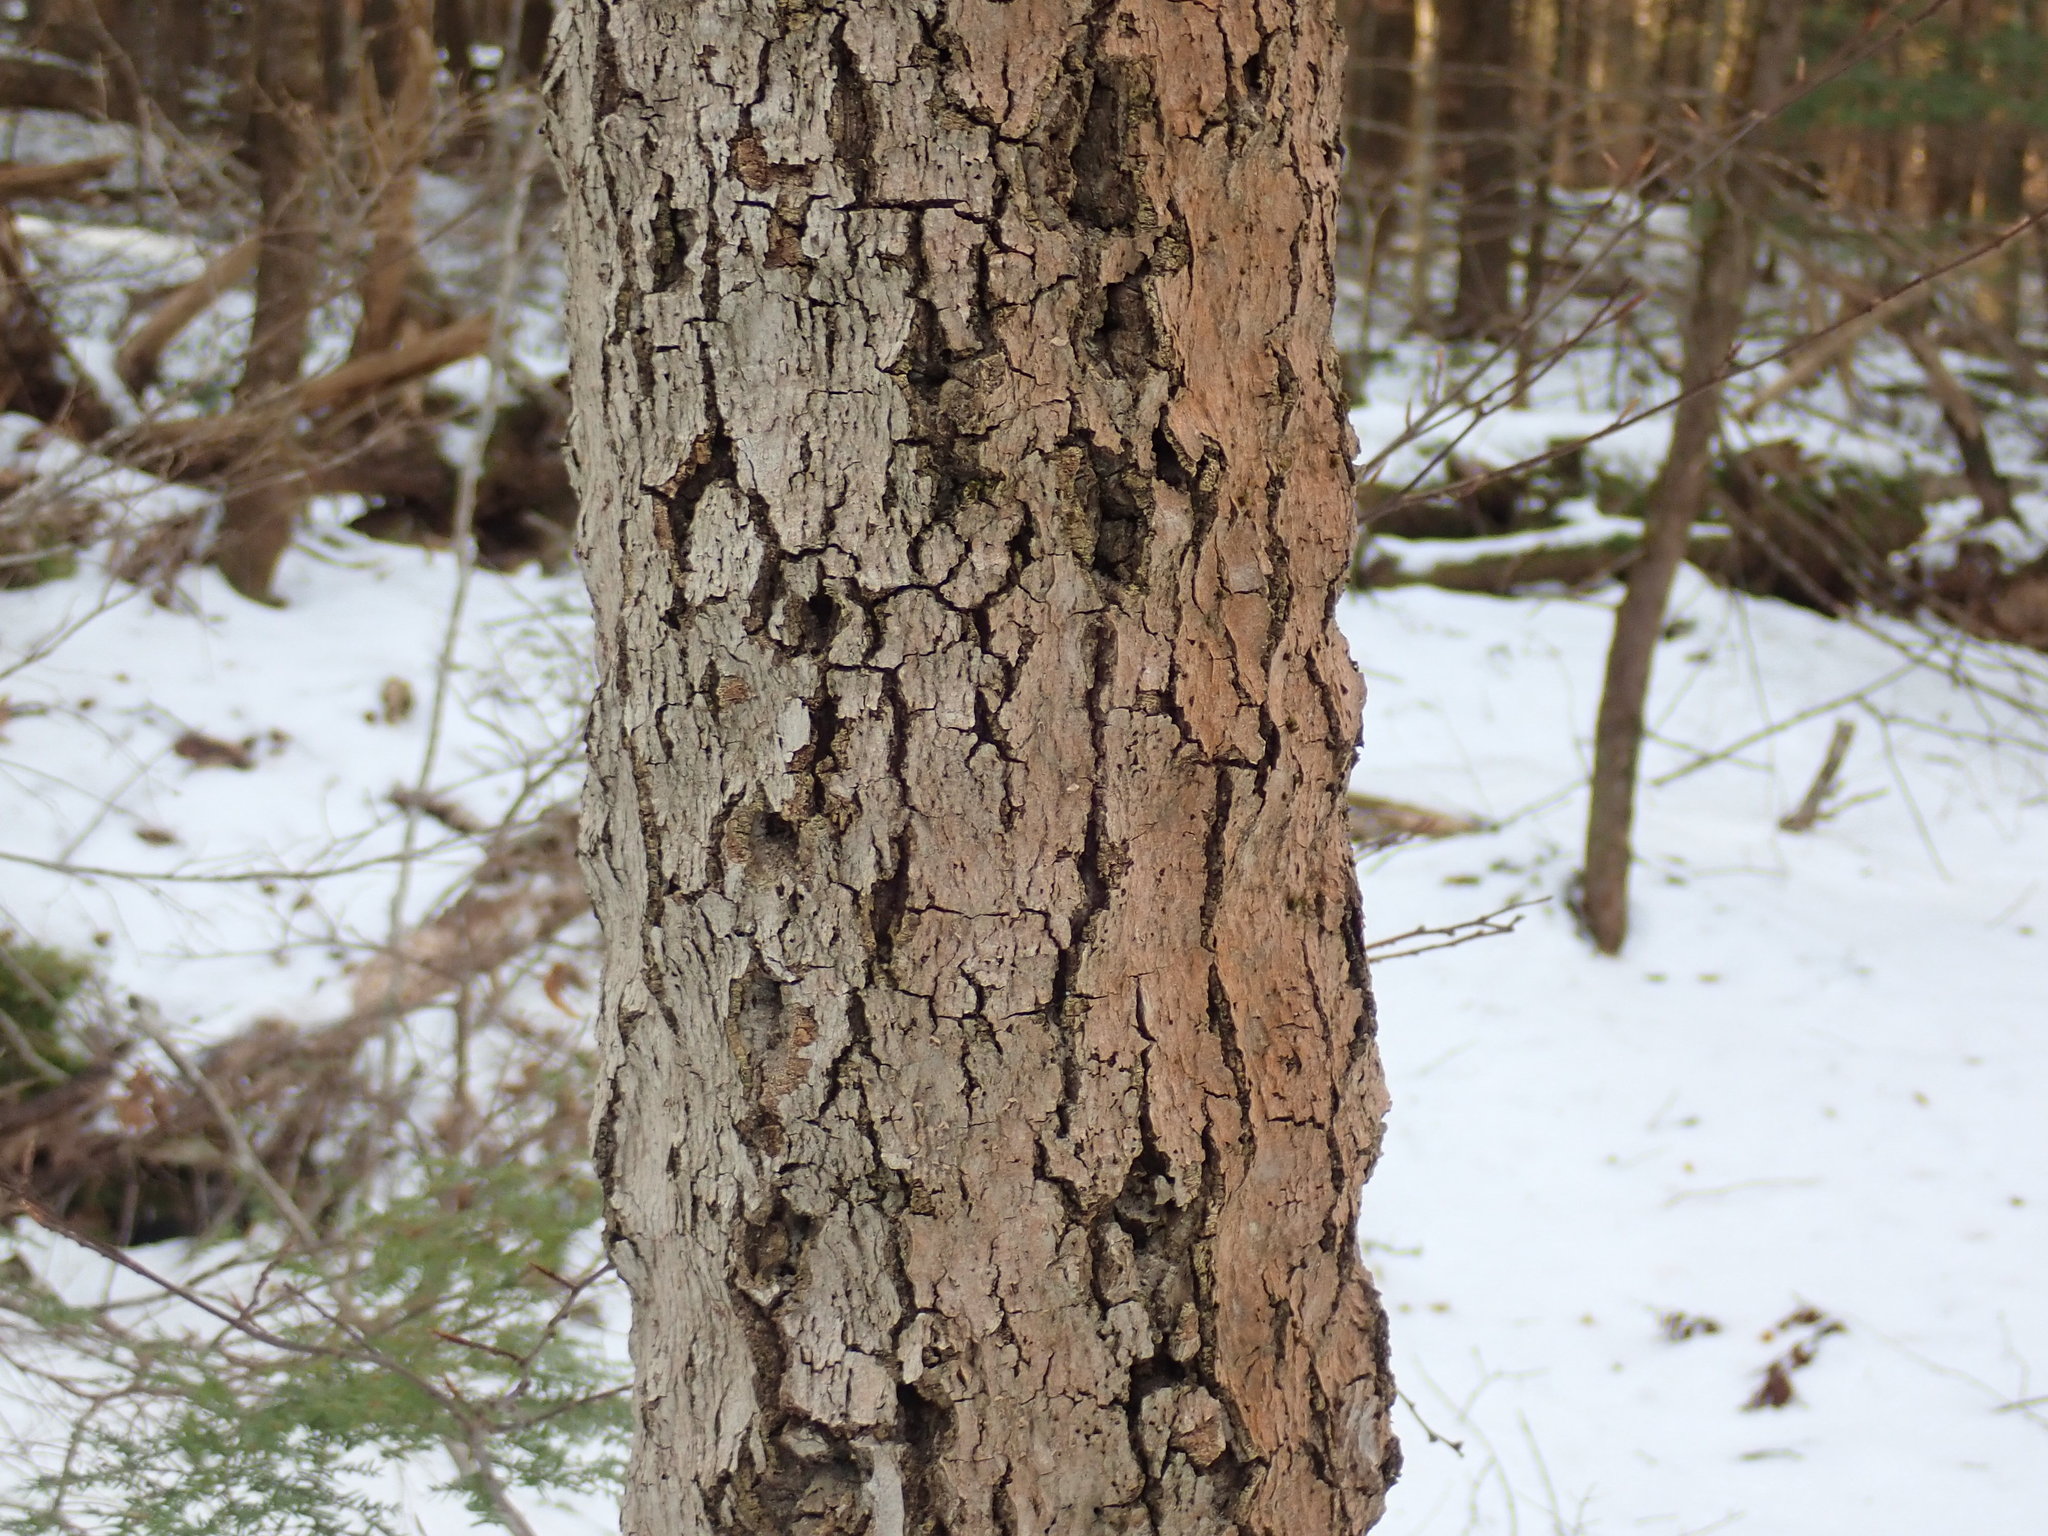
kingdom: Fungi
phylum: Ascomycota
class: Sordariomycetes
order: Hypocreales
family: Nectriaceae
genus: Neonectria
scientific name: Neonectria faginata
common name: Beech bark canker
